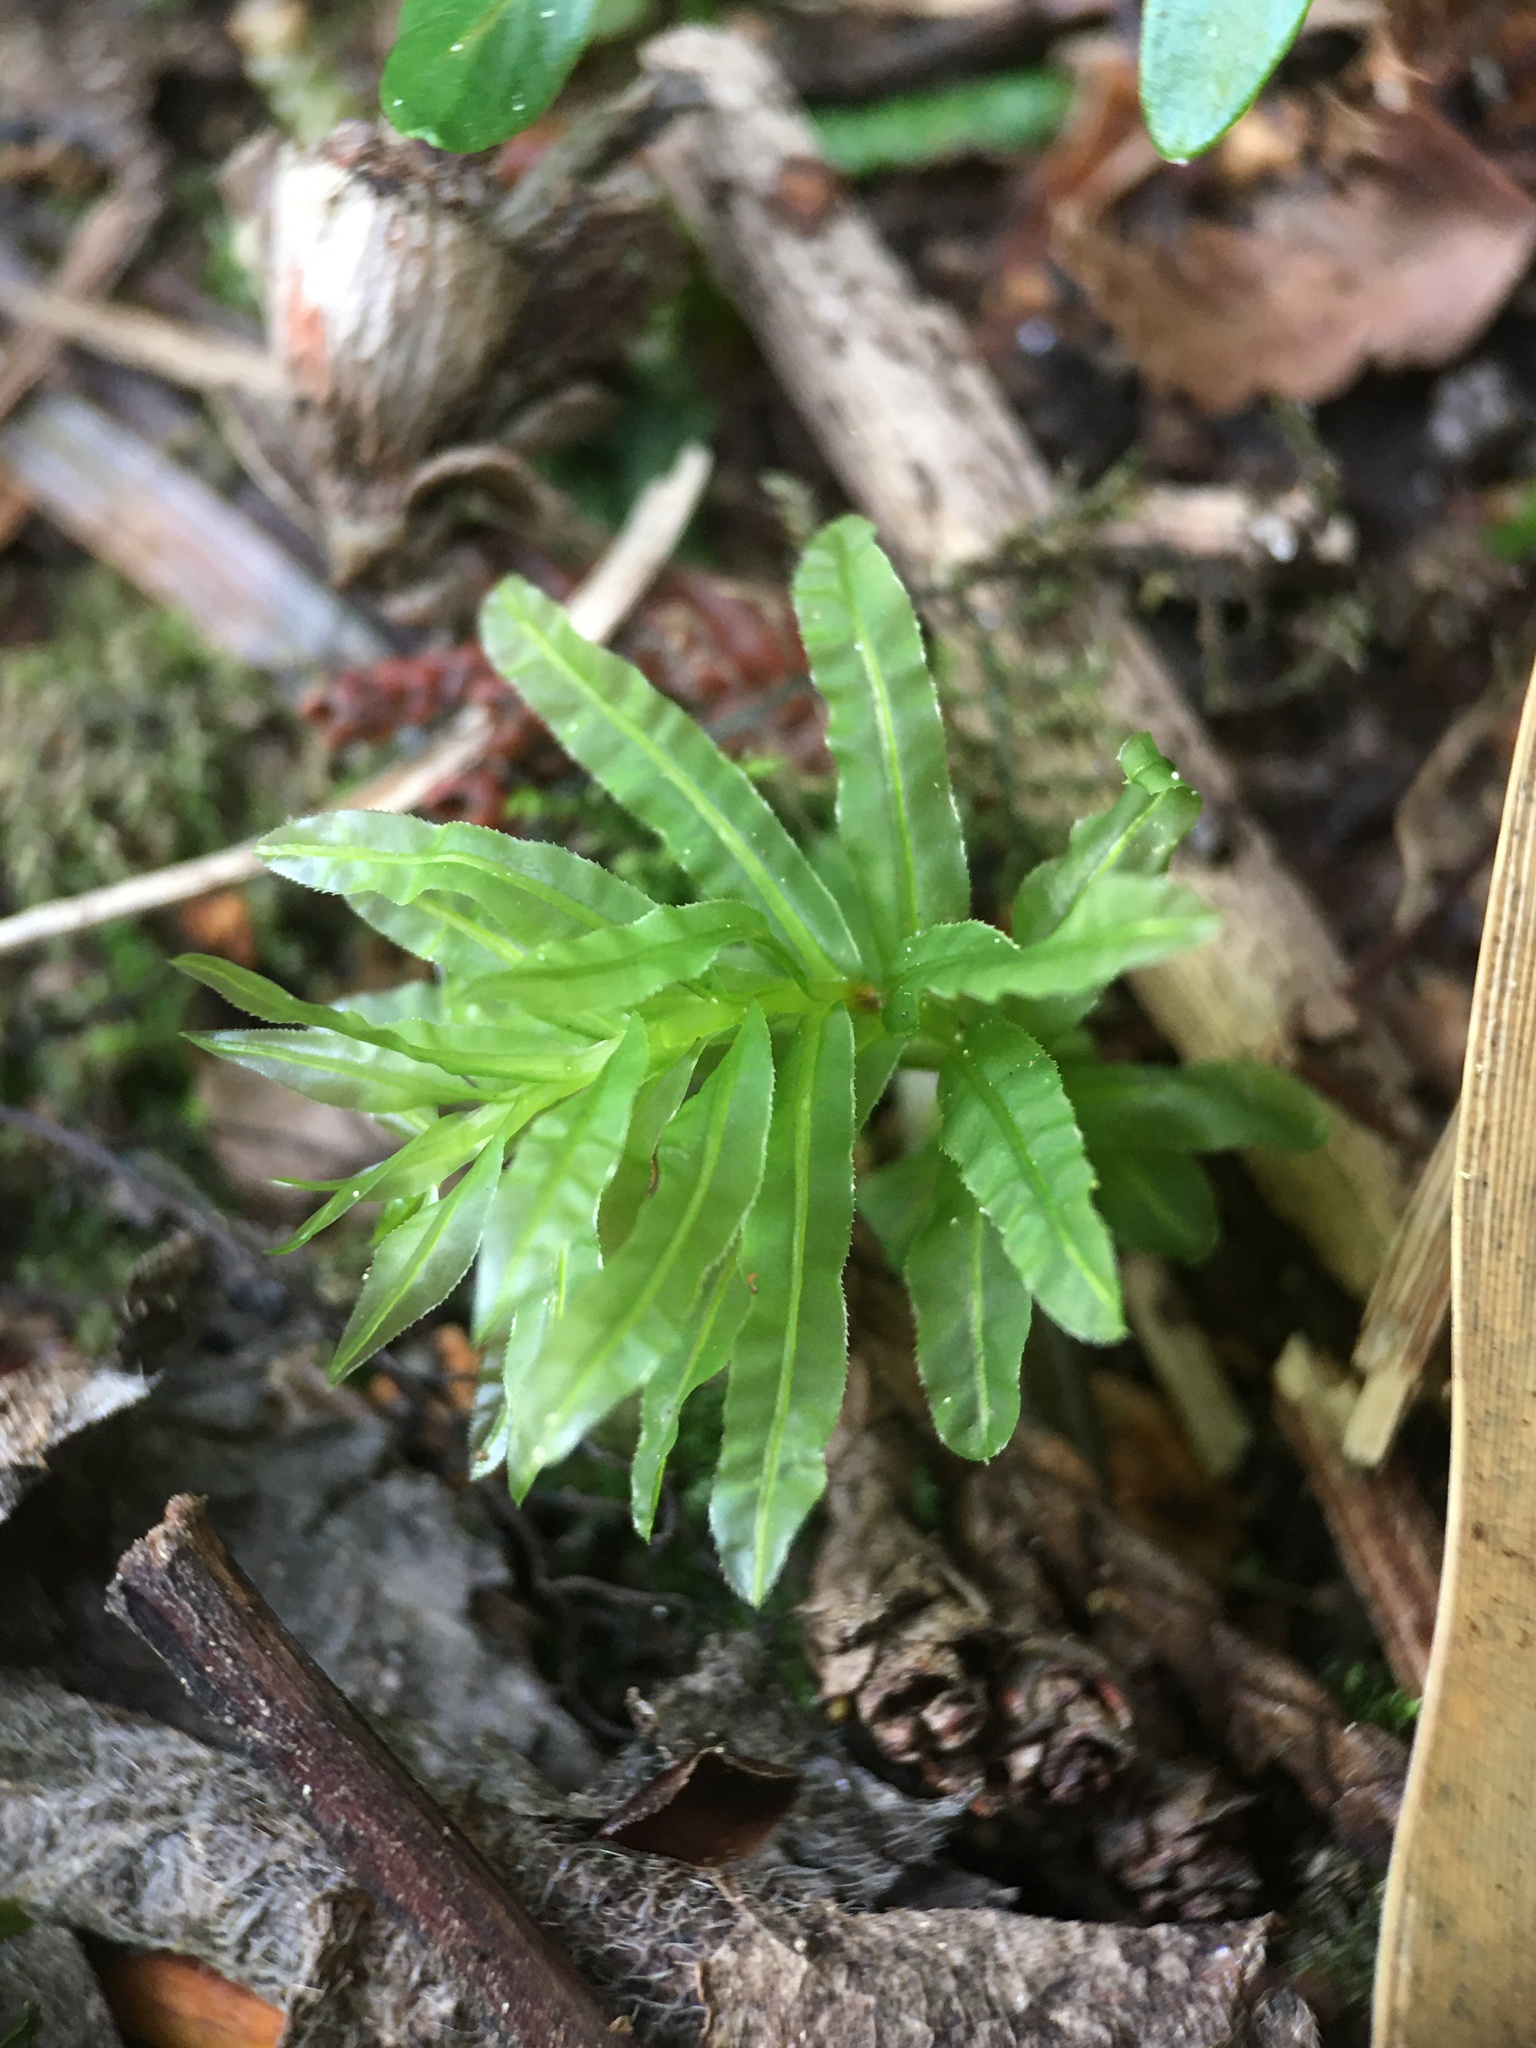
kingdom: Plantae
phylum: Bryophyta
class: Bryopsida
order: Bryales
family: Mniaceae
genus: Plagiomnium
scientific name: Plagiomnium undulatum
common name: Hart's-tongue thyme-moss
